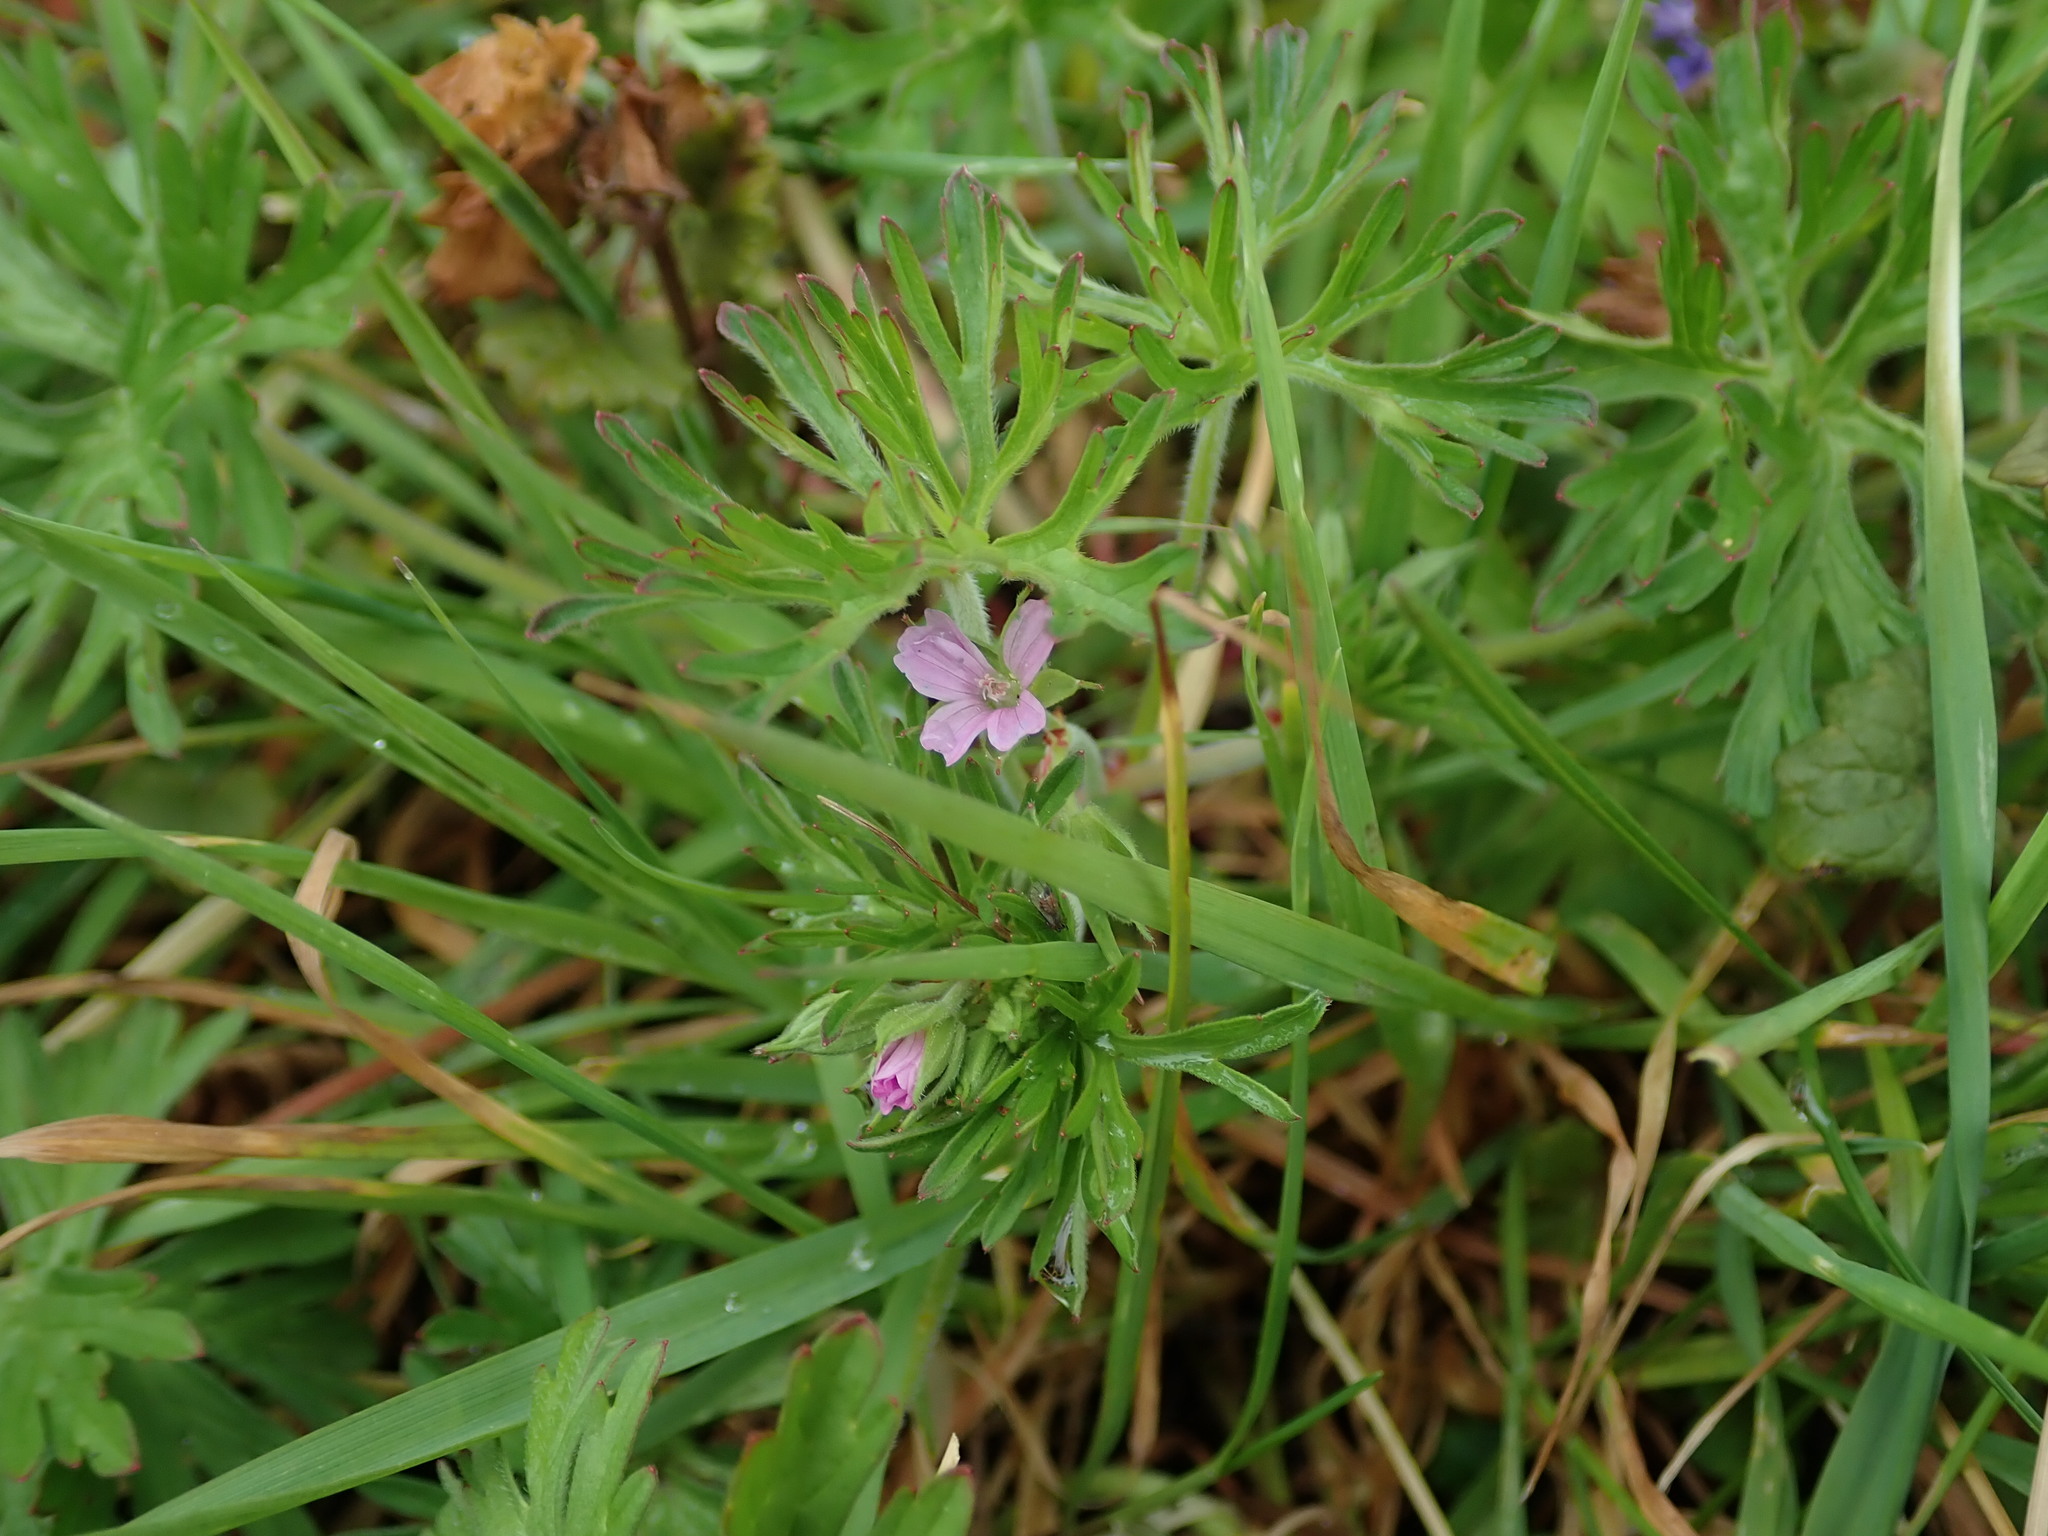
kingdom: Plantae
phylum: Tracheophyta
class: Magnoliopsida
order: Geraniales
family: Geraniaceae
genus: Geranium
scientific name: Geranium dissectum
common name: Cut-leaved crane's-bill
